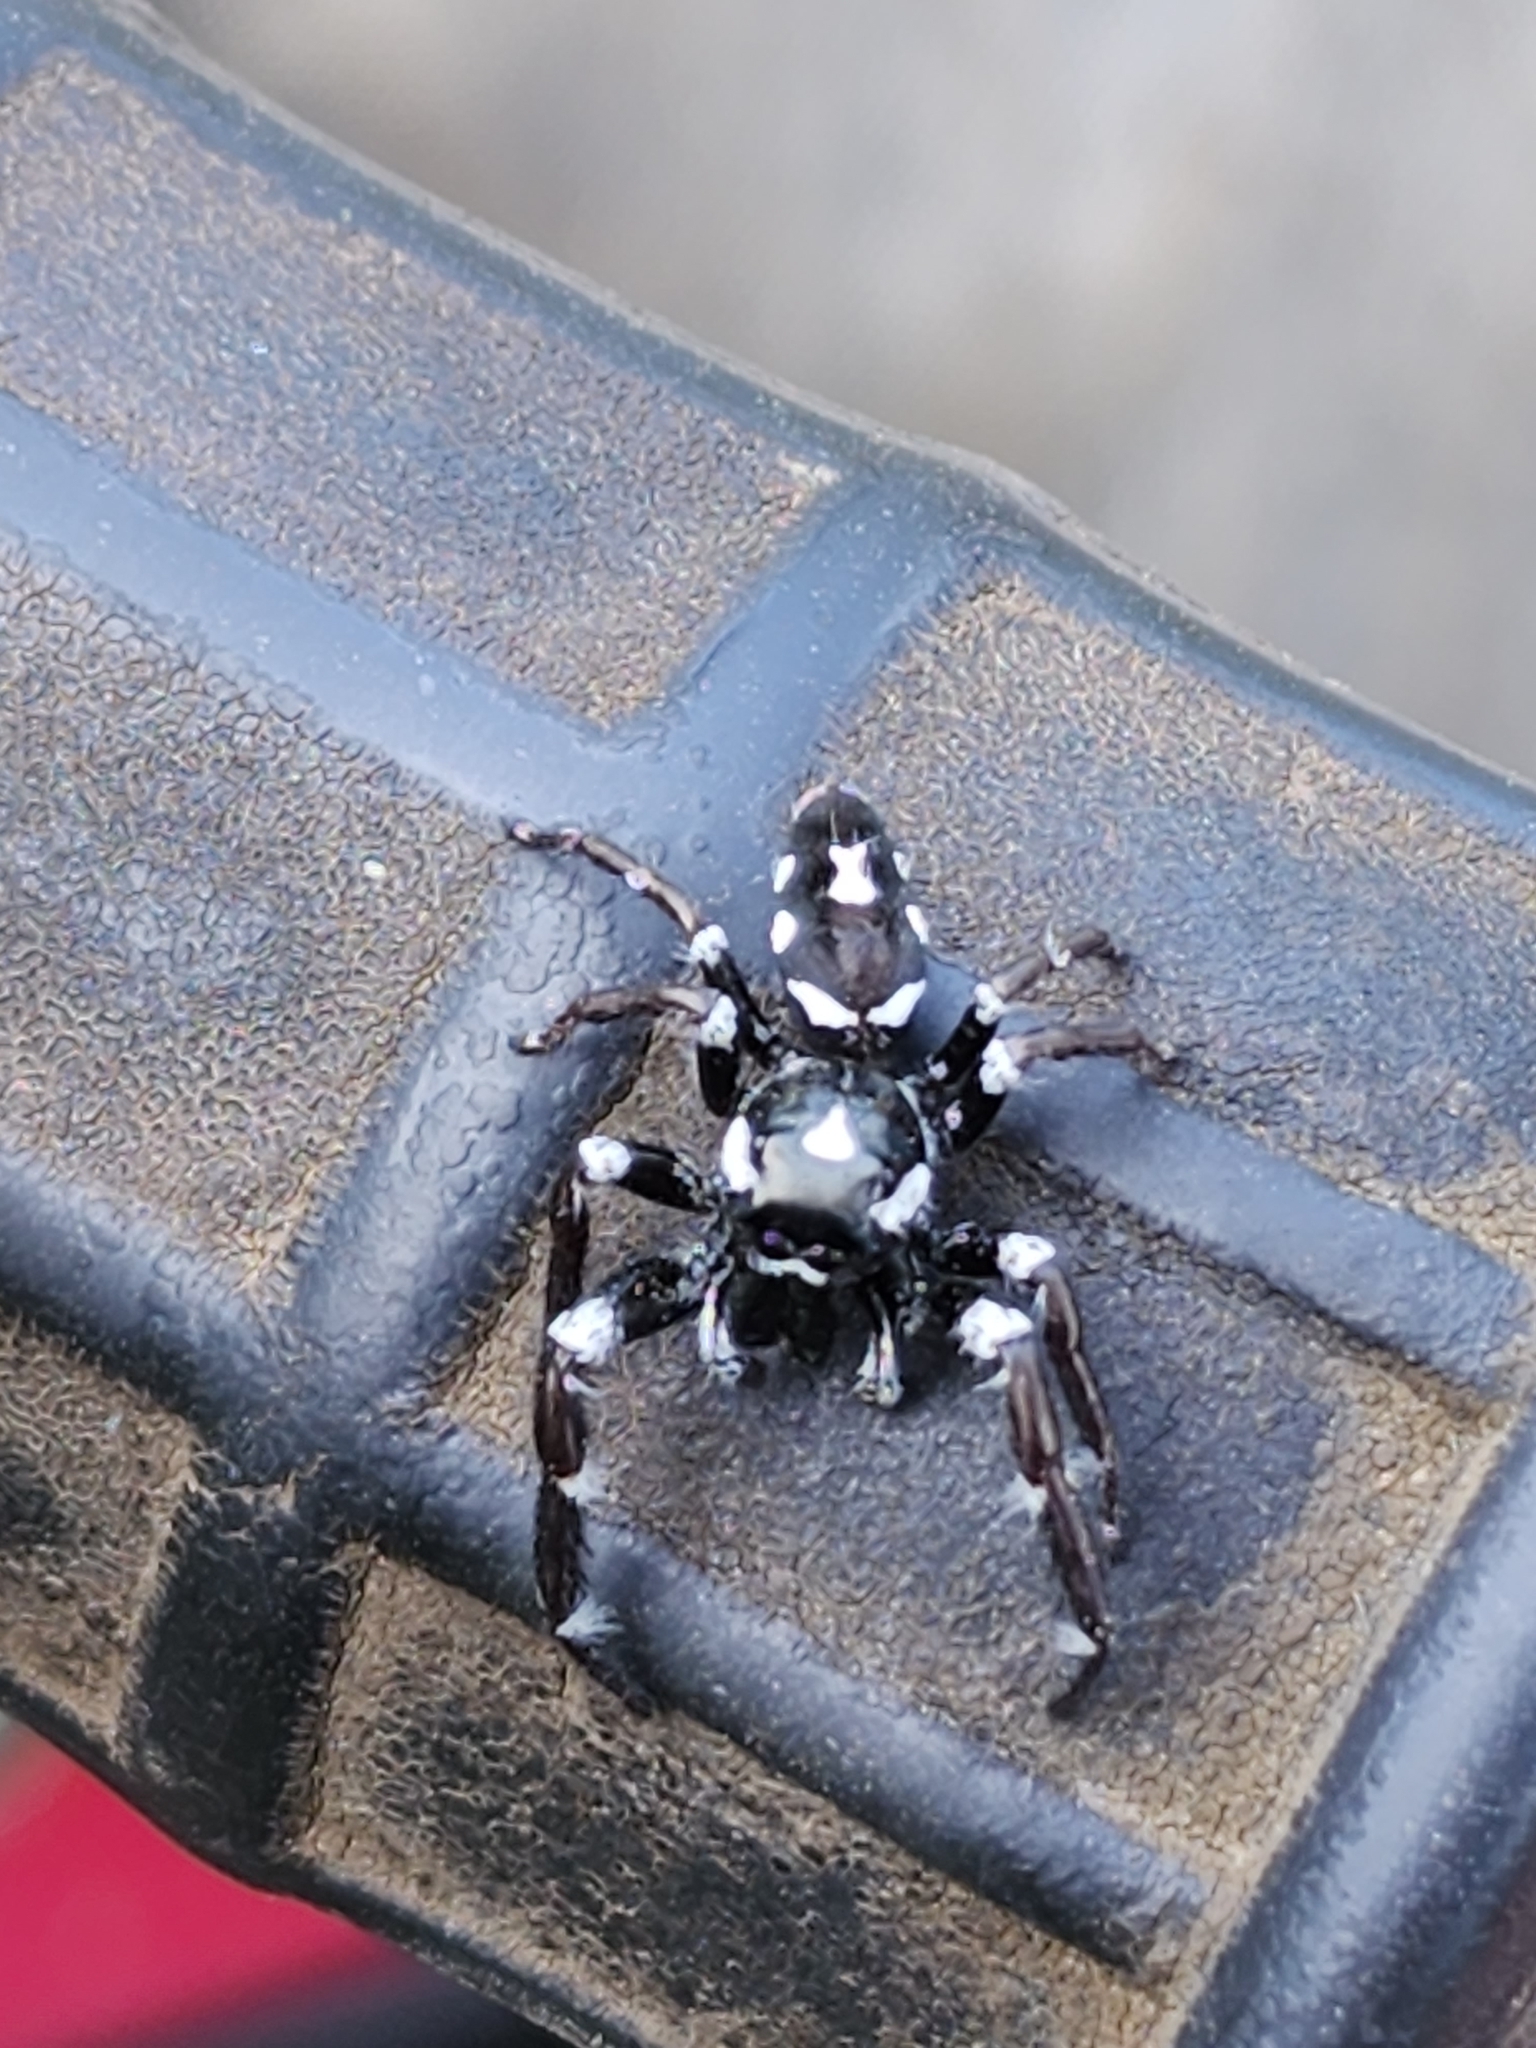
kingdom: Animalia
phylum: Arthropoda
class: Arachnida
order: Araneae
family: Salticidae
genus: Sandalodes
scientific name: Sandalodes scopifer
